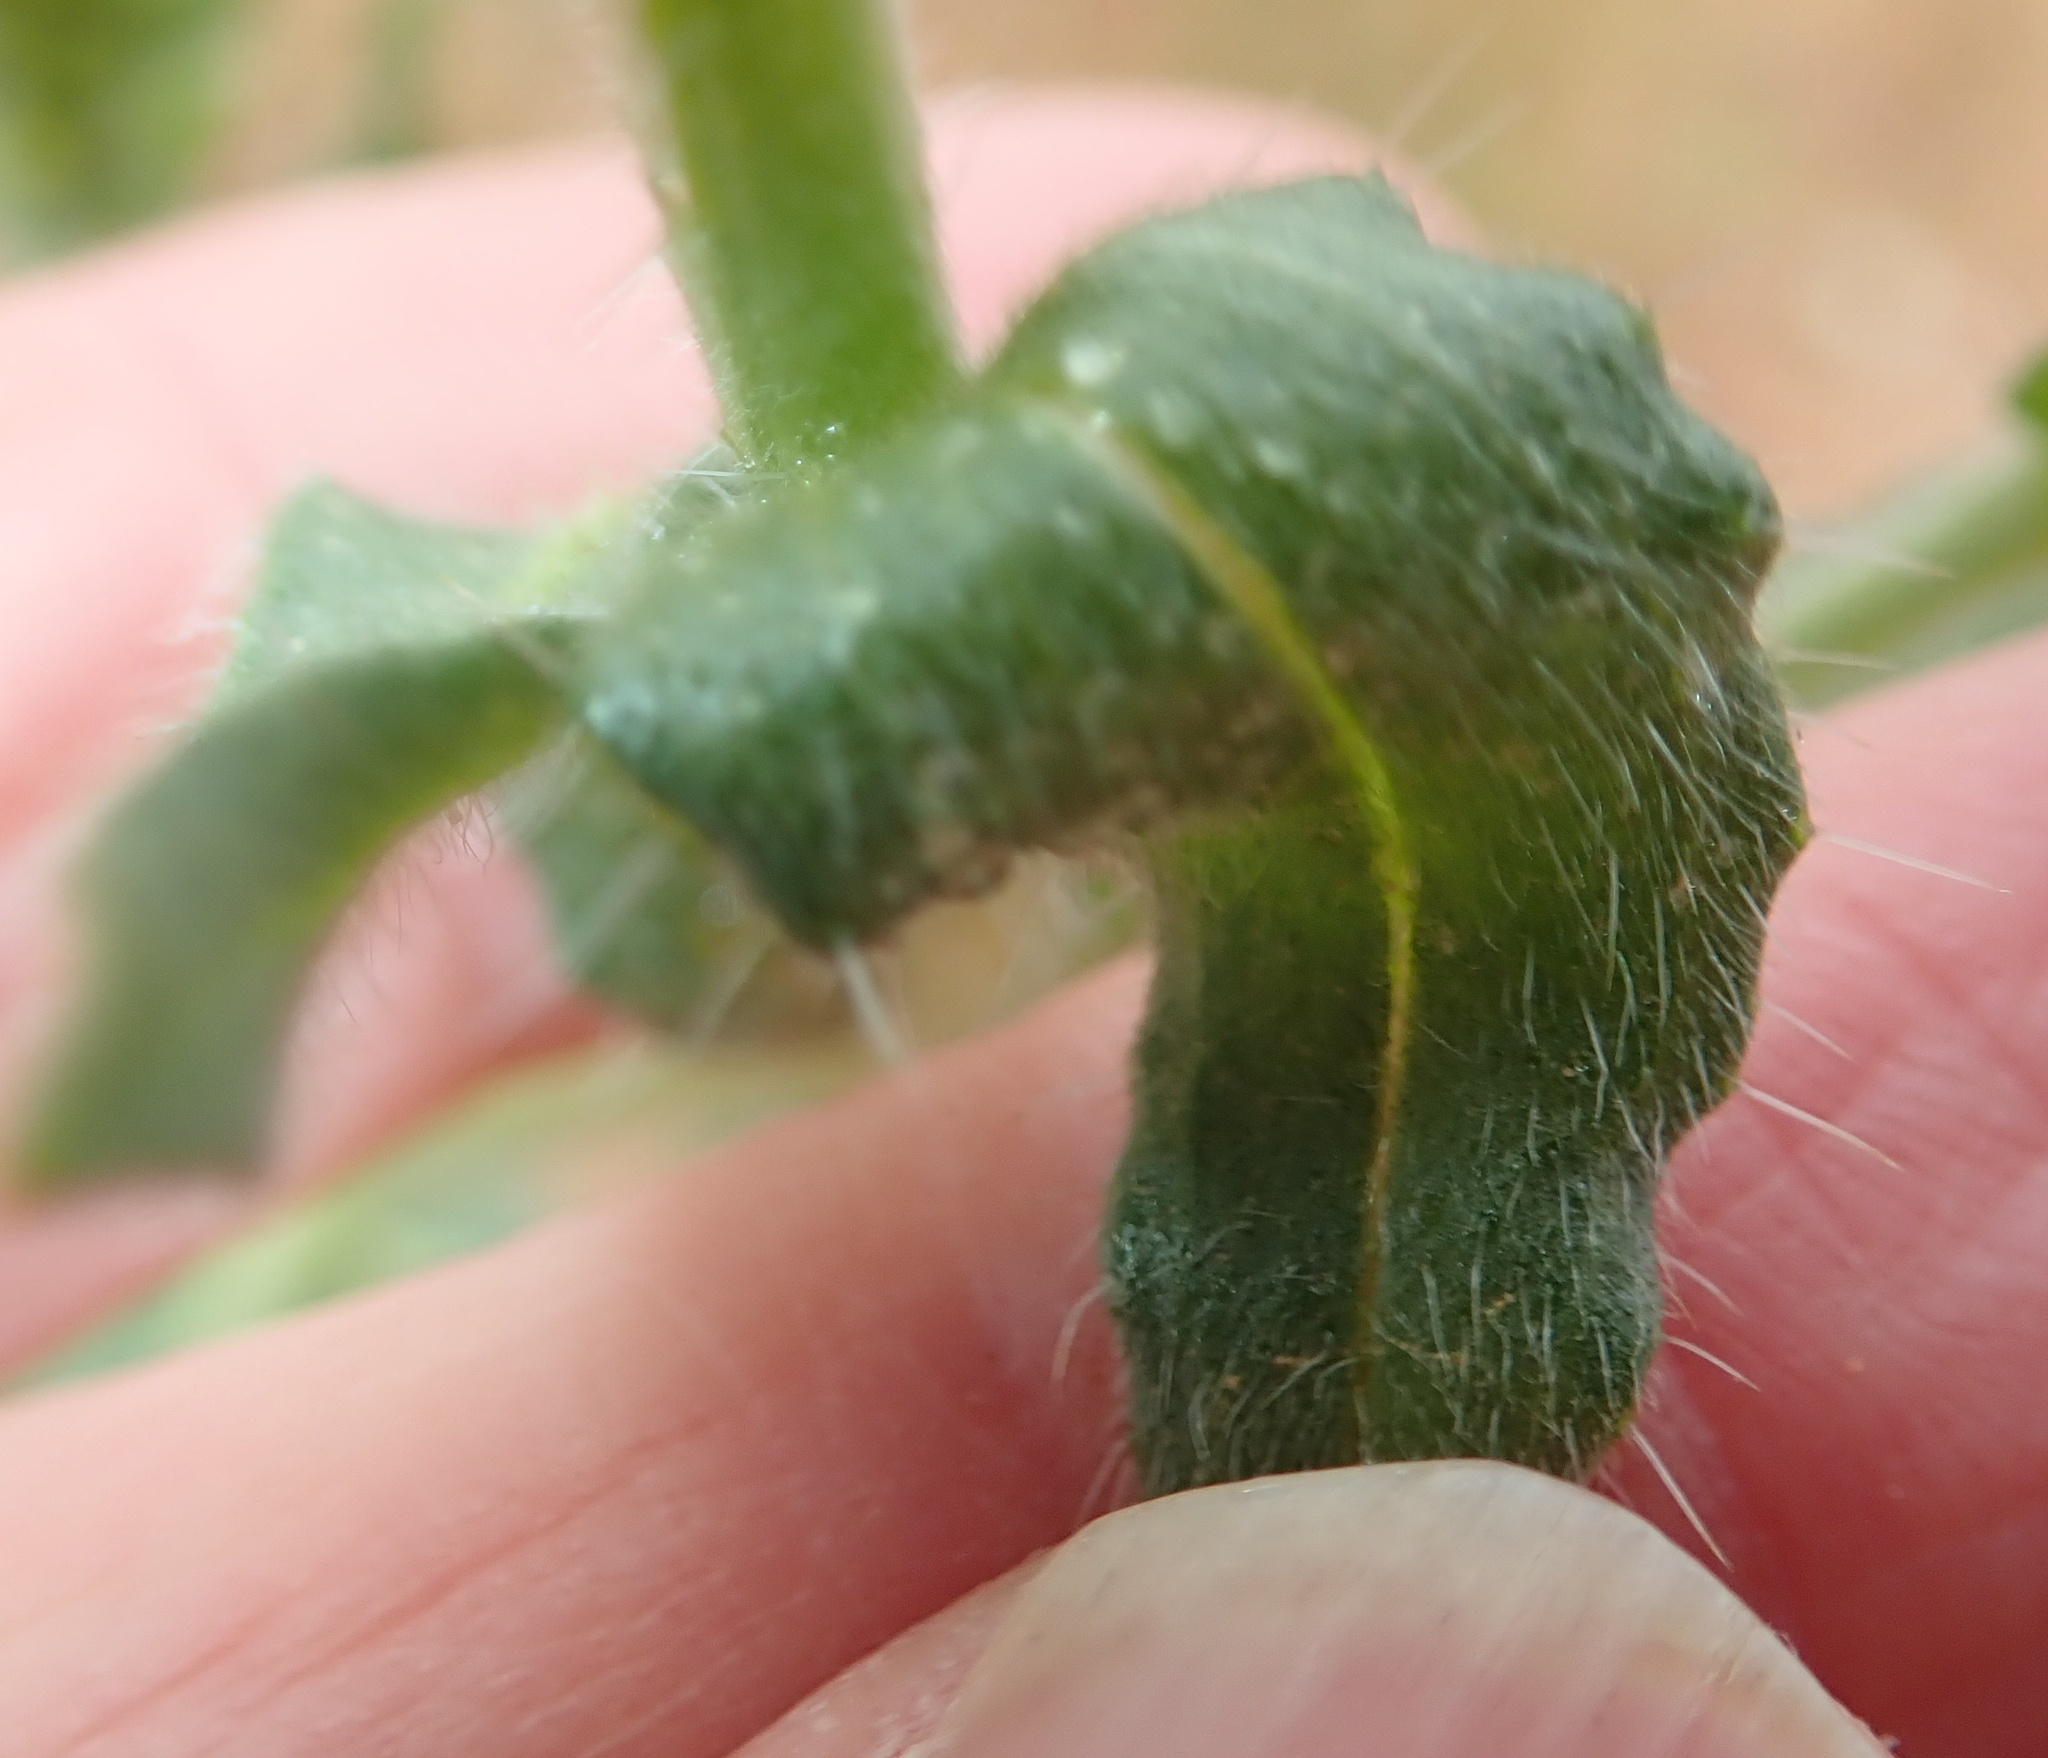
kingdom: Plantae
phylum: Tracheophyta
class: Magnoliopsida
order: Boraginales
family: Boraginaceae
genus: Amsinckia
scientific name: Amsinckia menziesii
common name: Menzies' fiddleneck
